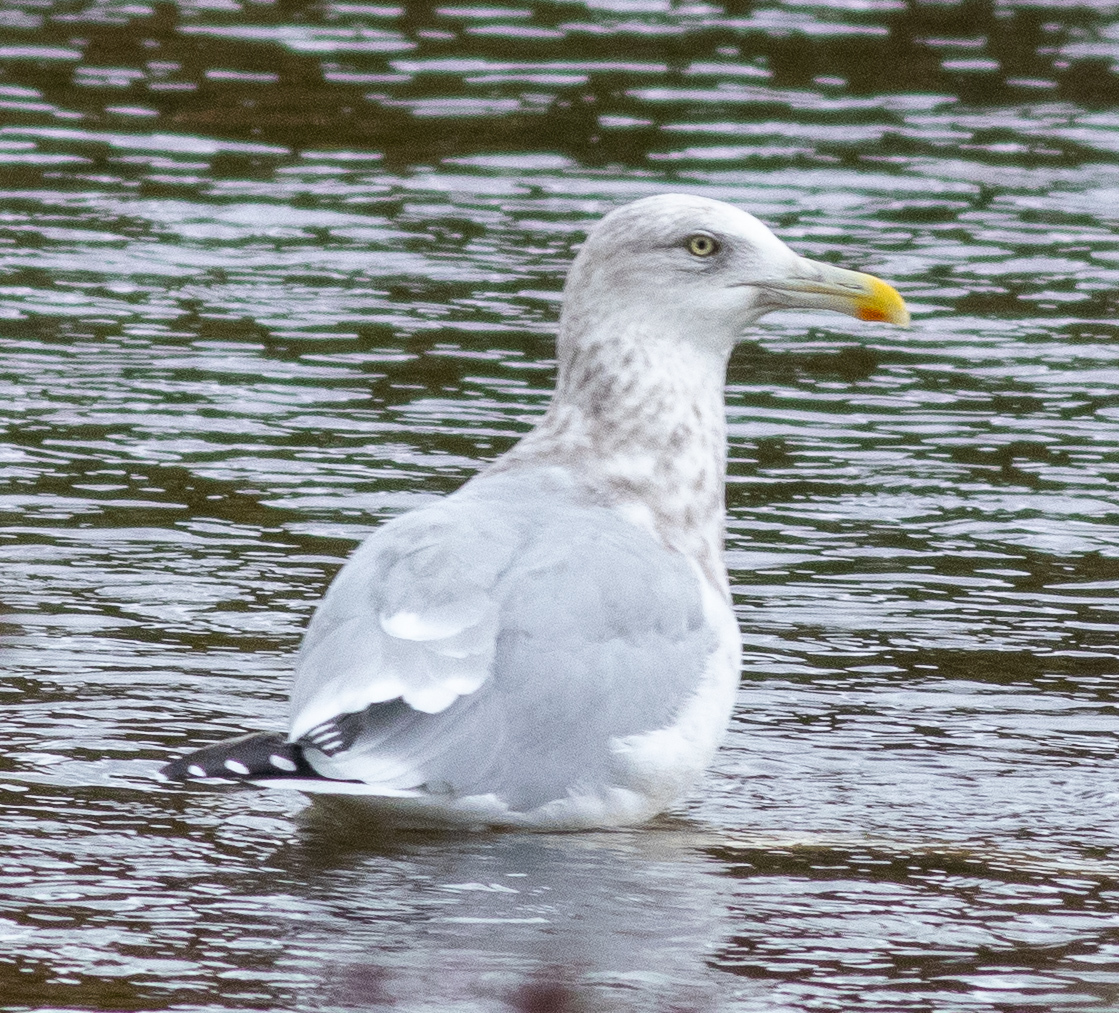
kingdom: Animalia
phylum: Chordata
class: Aves
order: Charadriiformes
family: Laridae
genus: Larus
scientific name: Larus argentatus
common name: Herring gull
